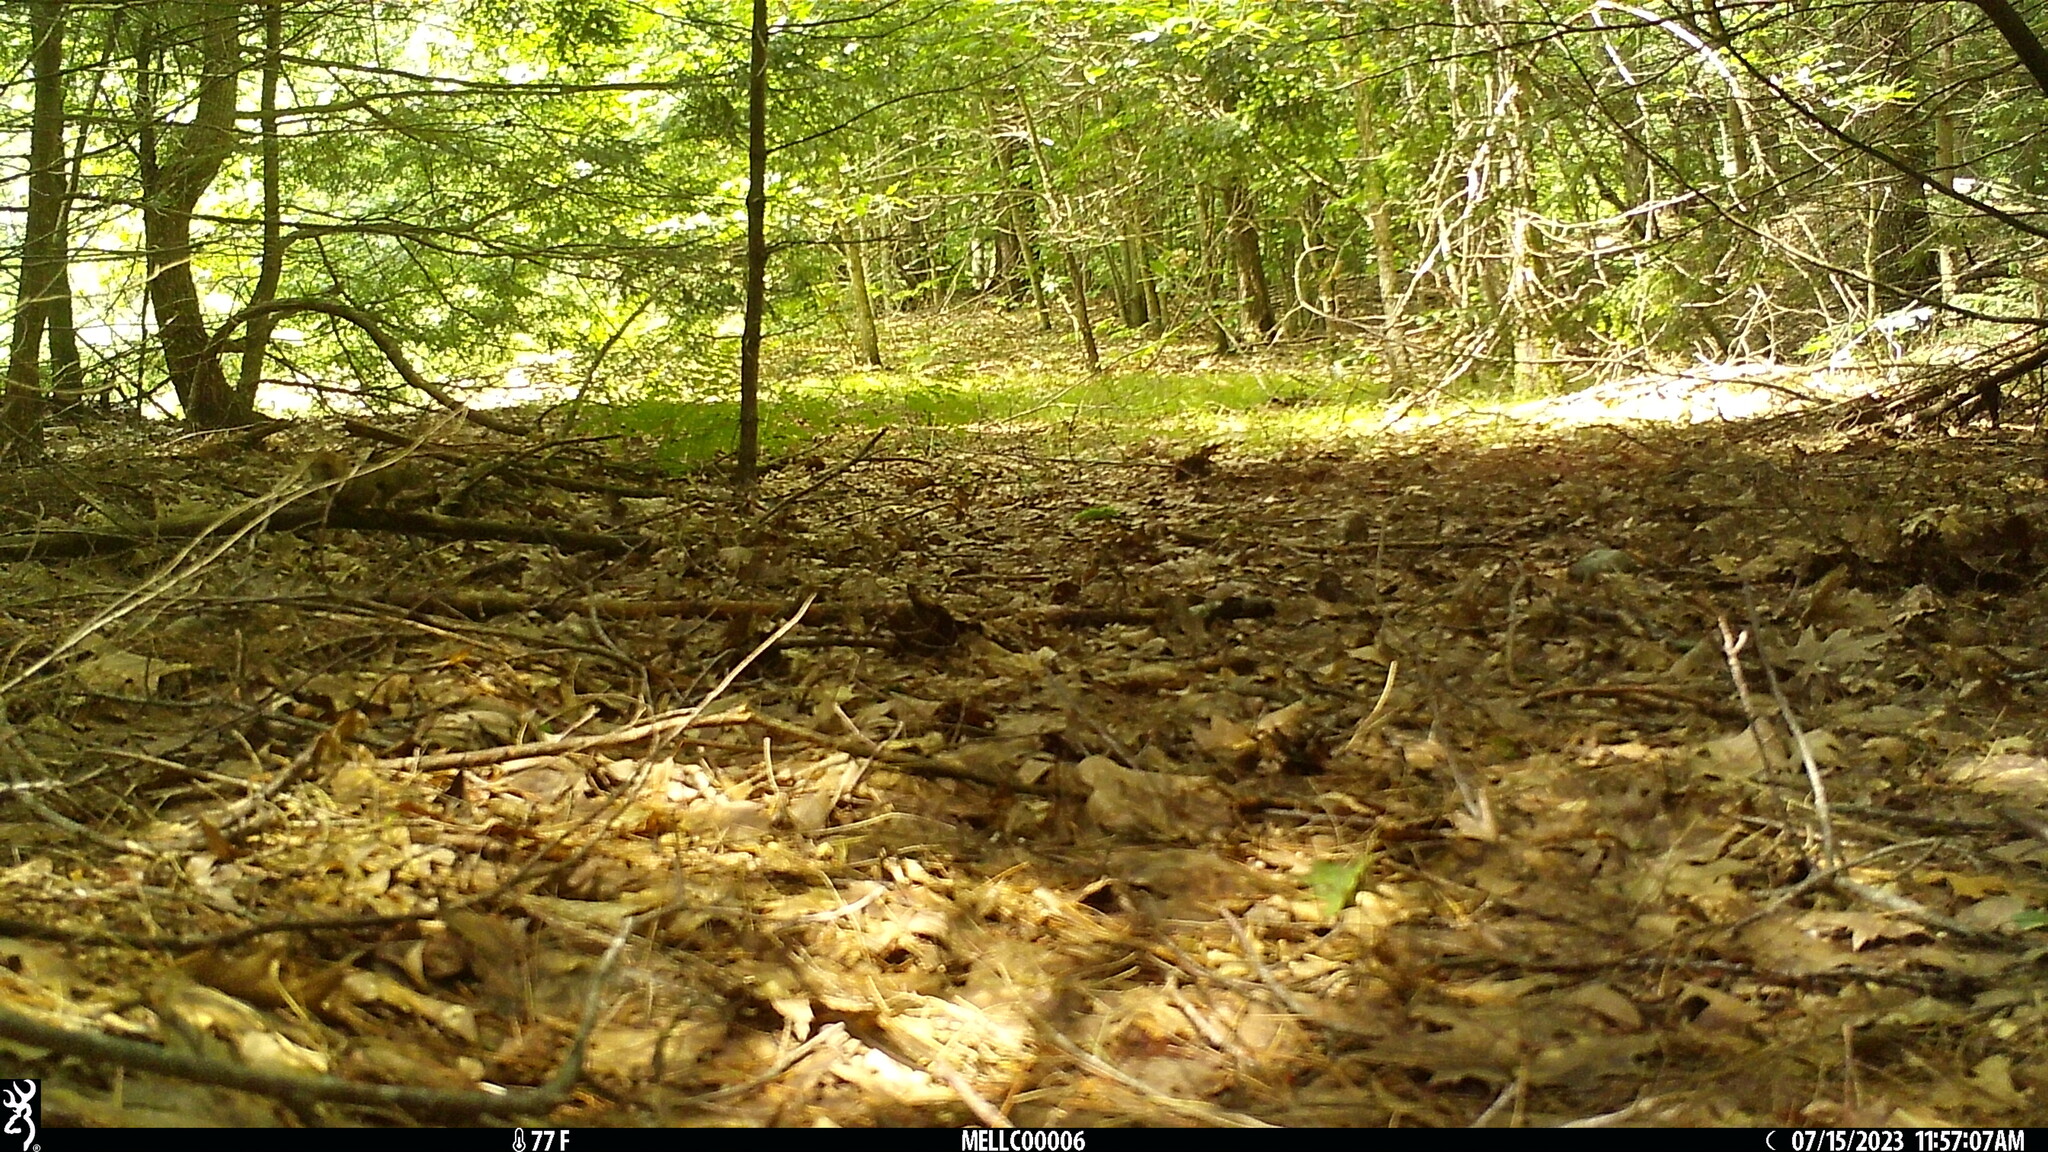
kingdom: Animalia
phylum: Chordata
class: Mammalia
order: Rodentia
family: Sciuridae
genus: Tamiasciurus
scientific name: Tamiasciurus hudsonicus
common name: Red squirrel
